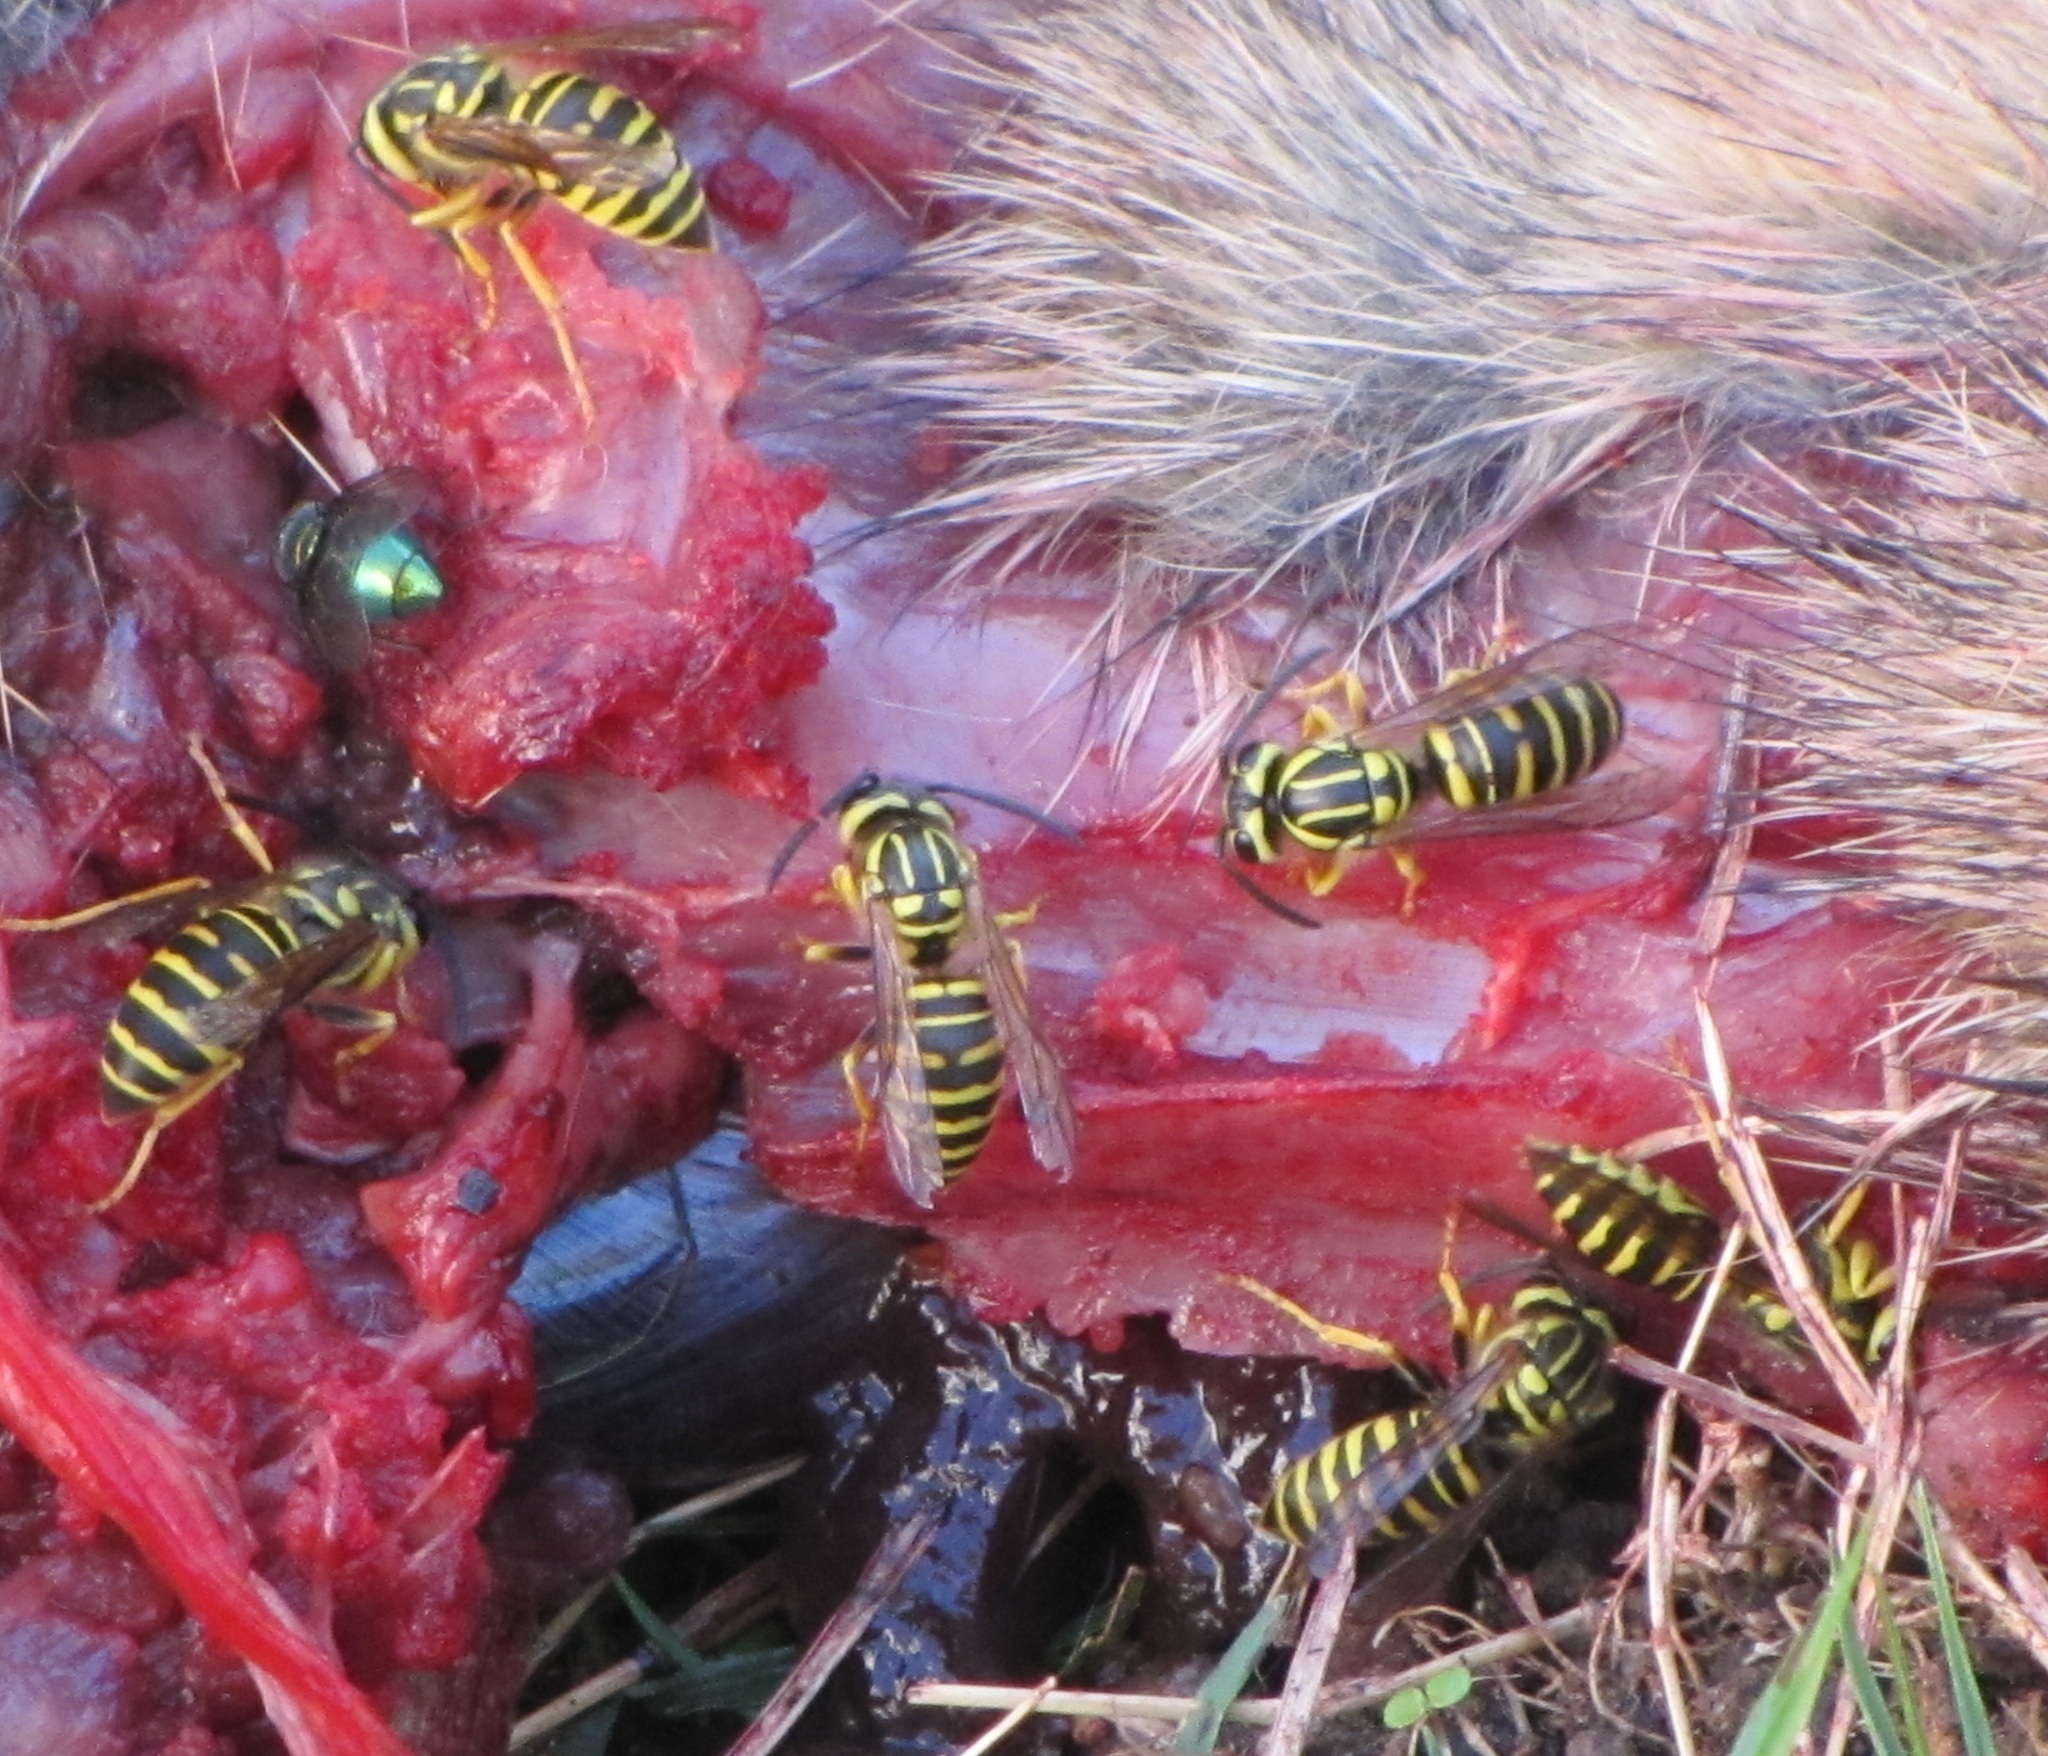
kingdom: Animalia
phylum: Arthropoda
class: Insecta
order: Hymenoptera
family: Vespidae
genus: Vespula
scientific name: Vespula squamosa
